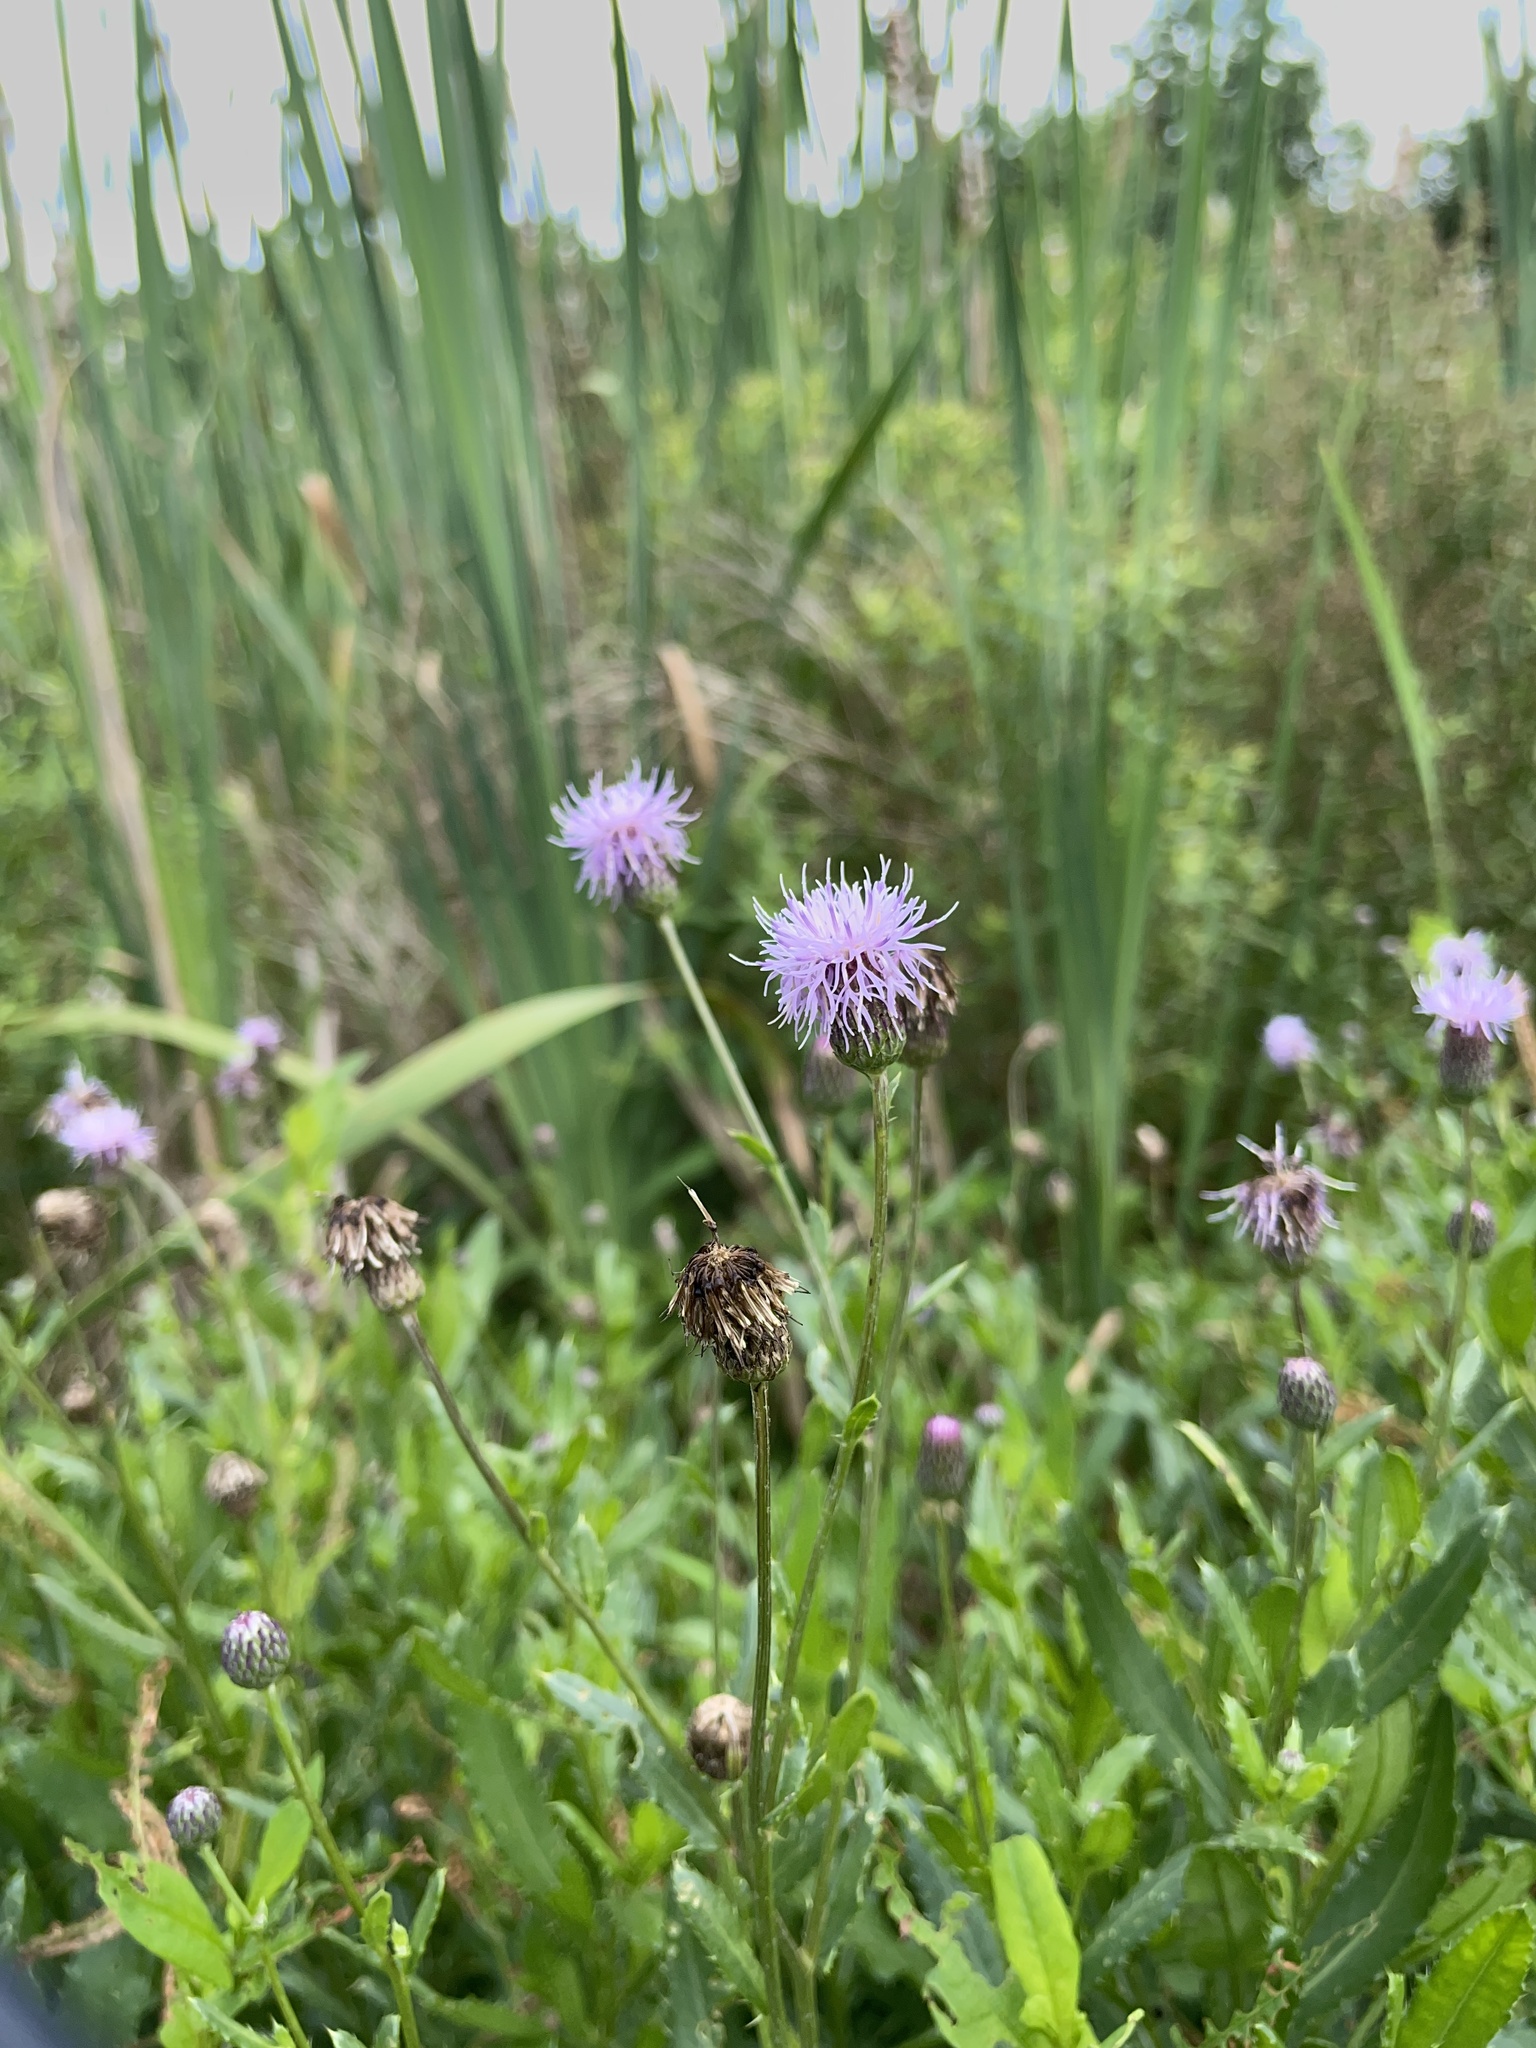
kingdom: Plantae
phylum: Tracheophyta
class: Magnoliopsida
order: Asterales
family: Asteraceae
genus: Cirsium
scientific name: Cirsium arvense
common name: Creeping thistle
